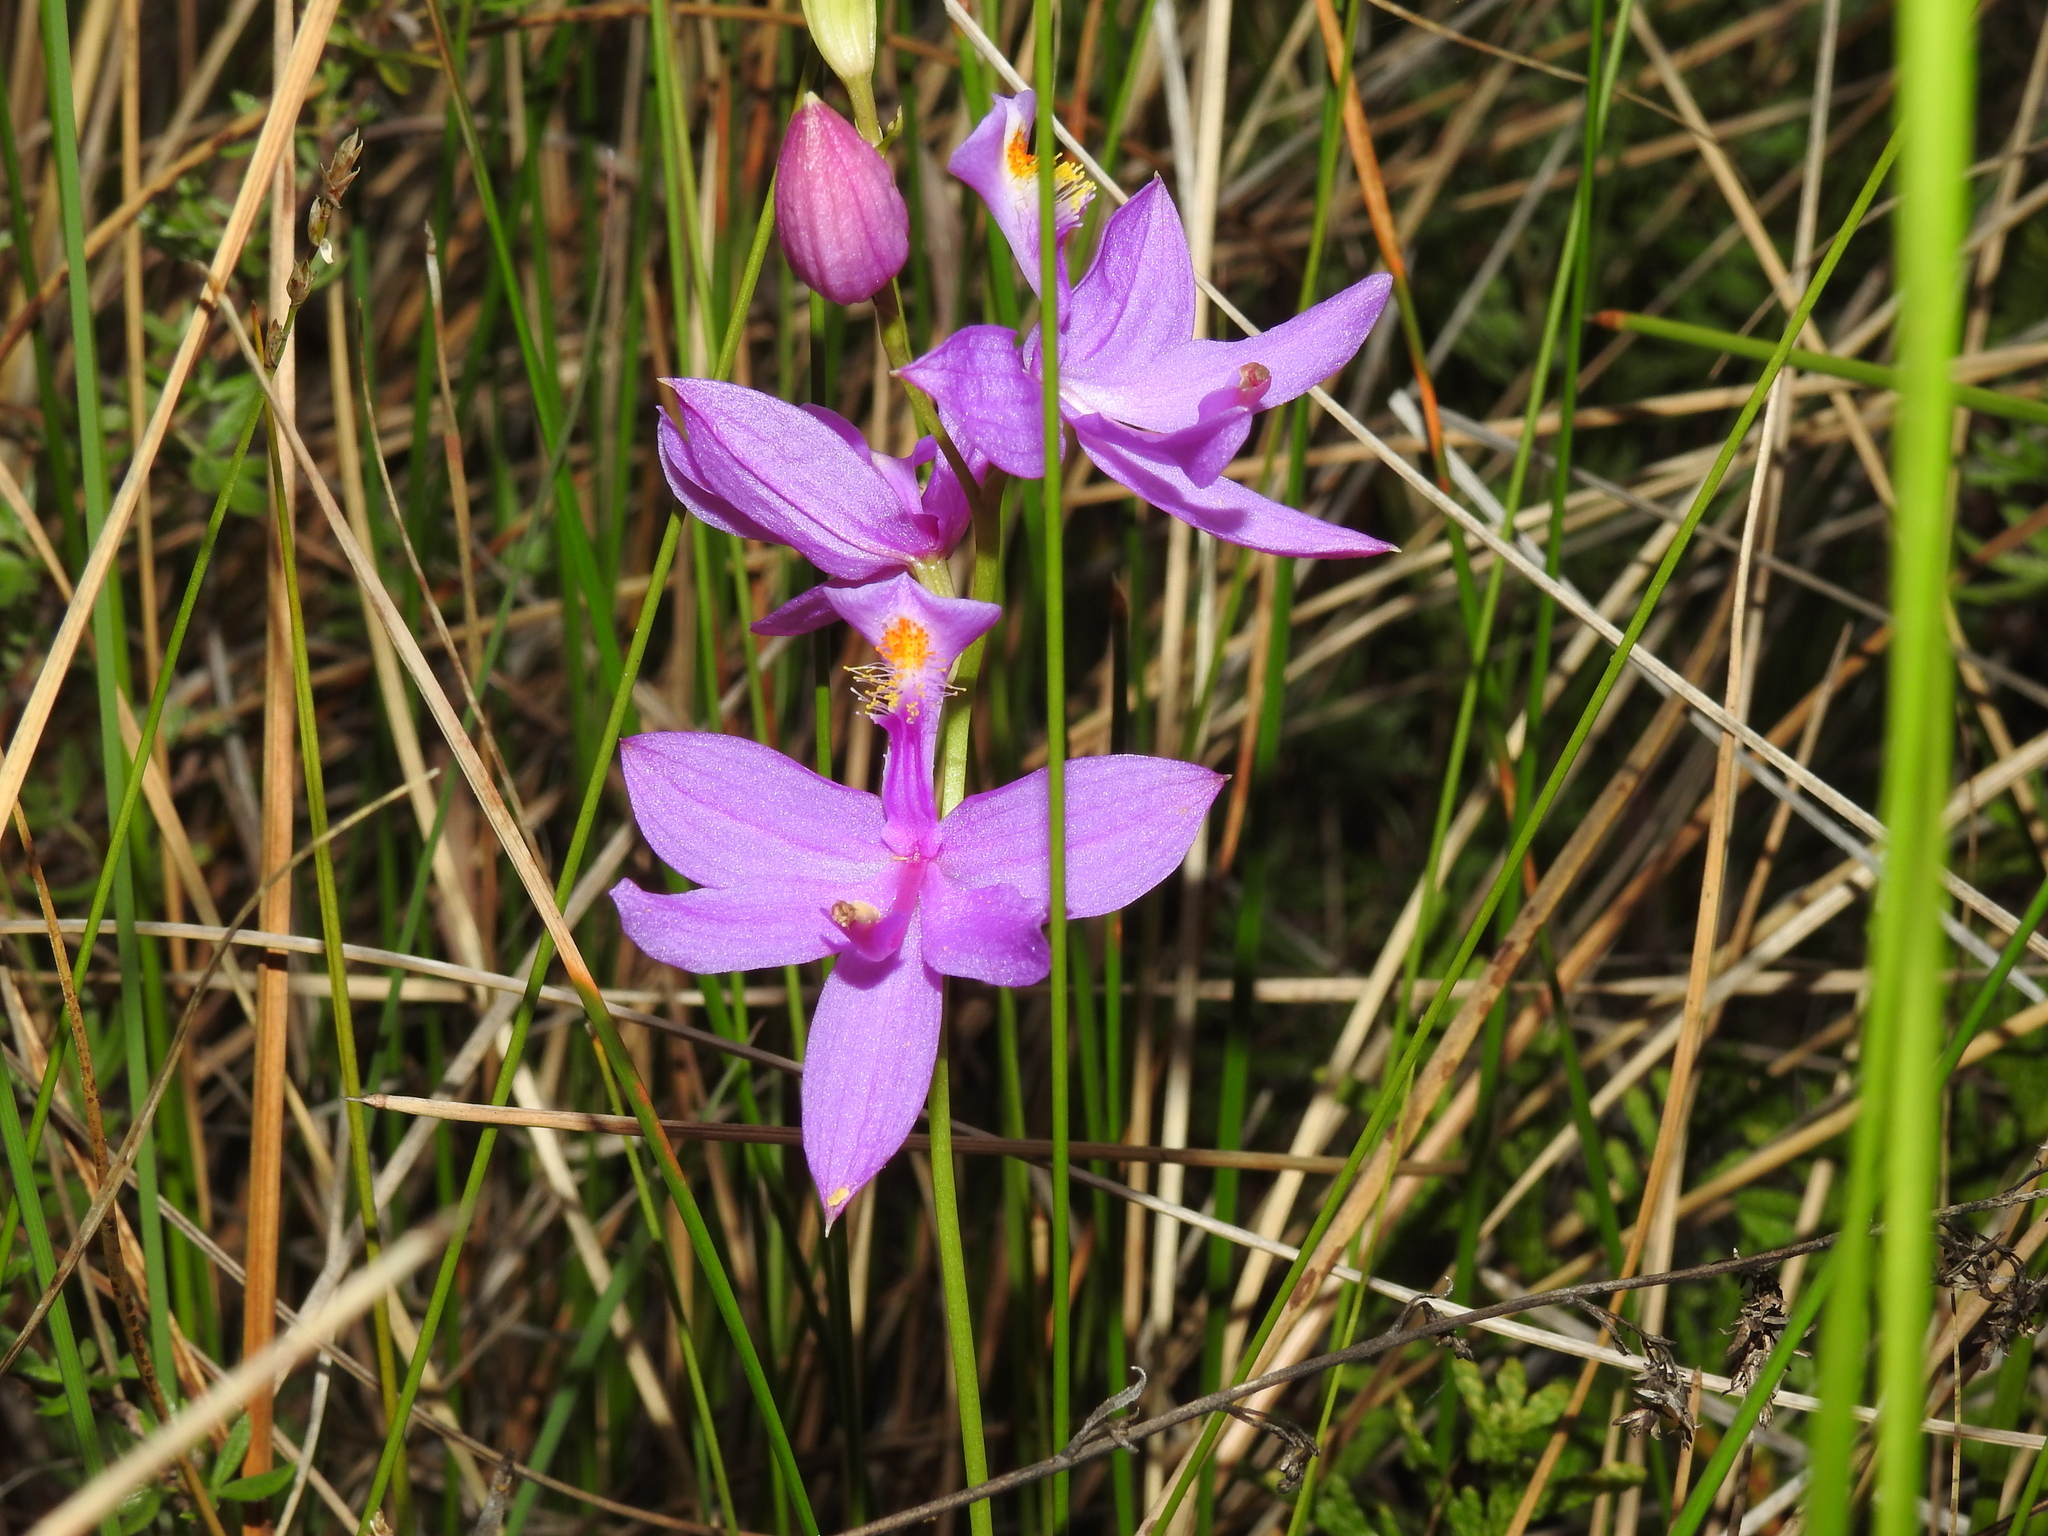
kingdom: Plantae
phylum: Tracheophyta
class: Liliopsida
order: Asparagales
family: Orchidaceae
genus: Calopogon
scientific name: Calopogon tuberosus
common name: Grass-pink
